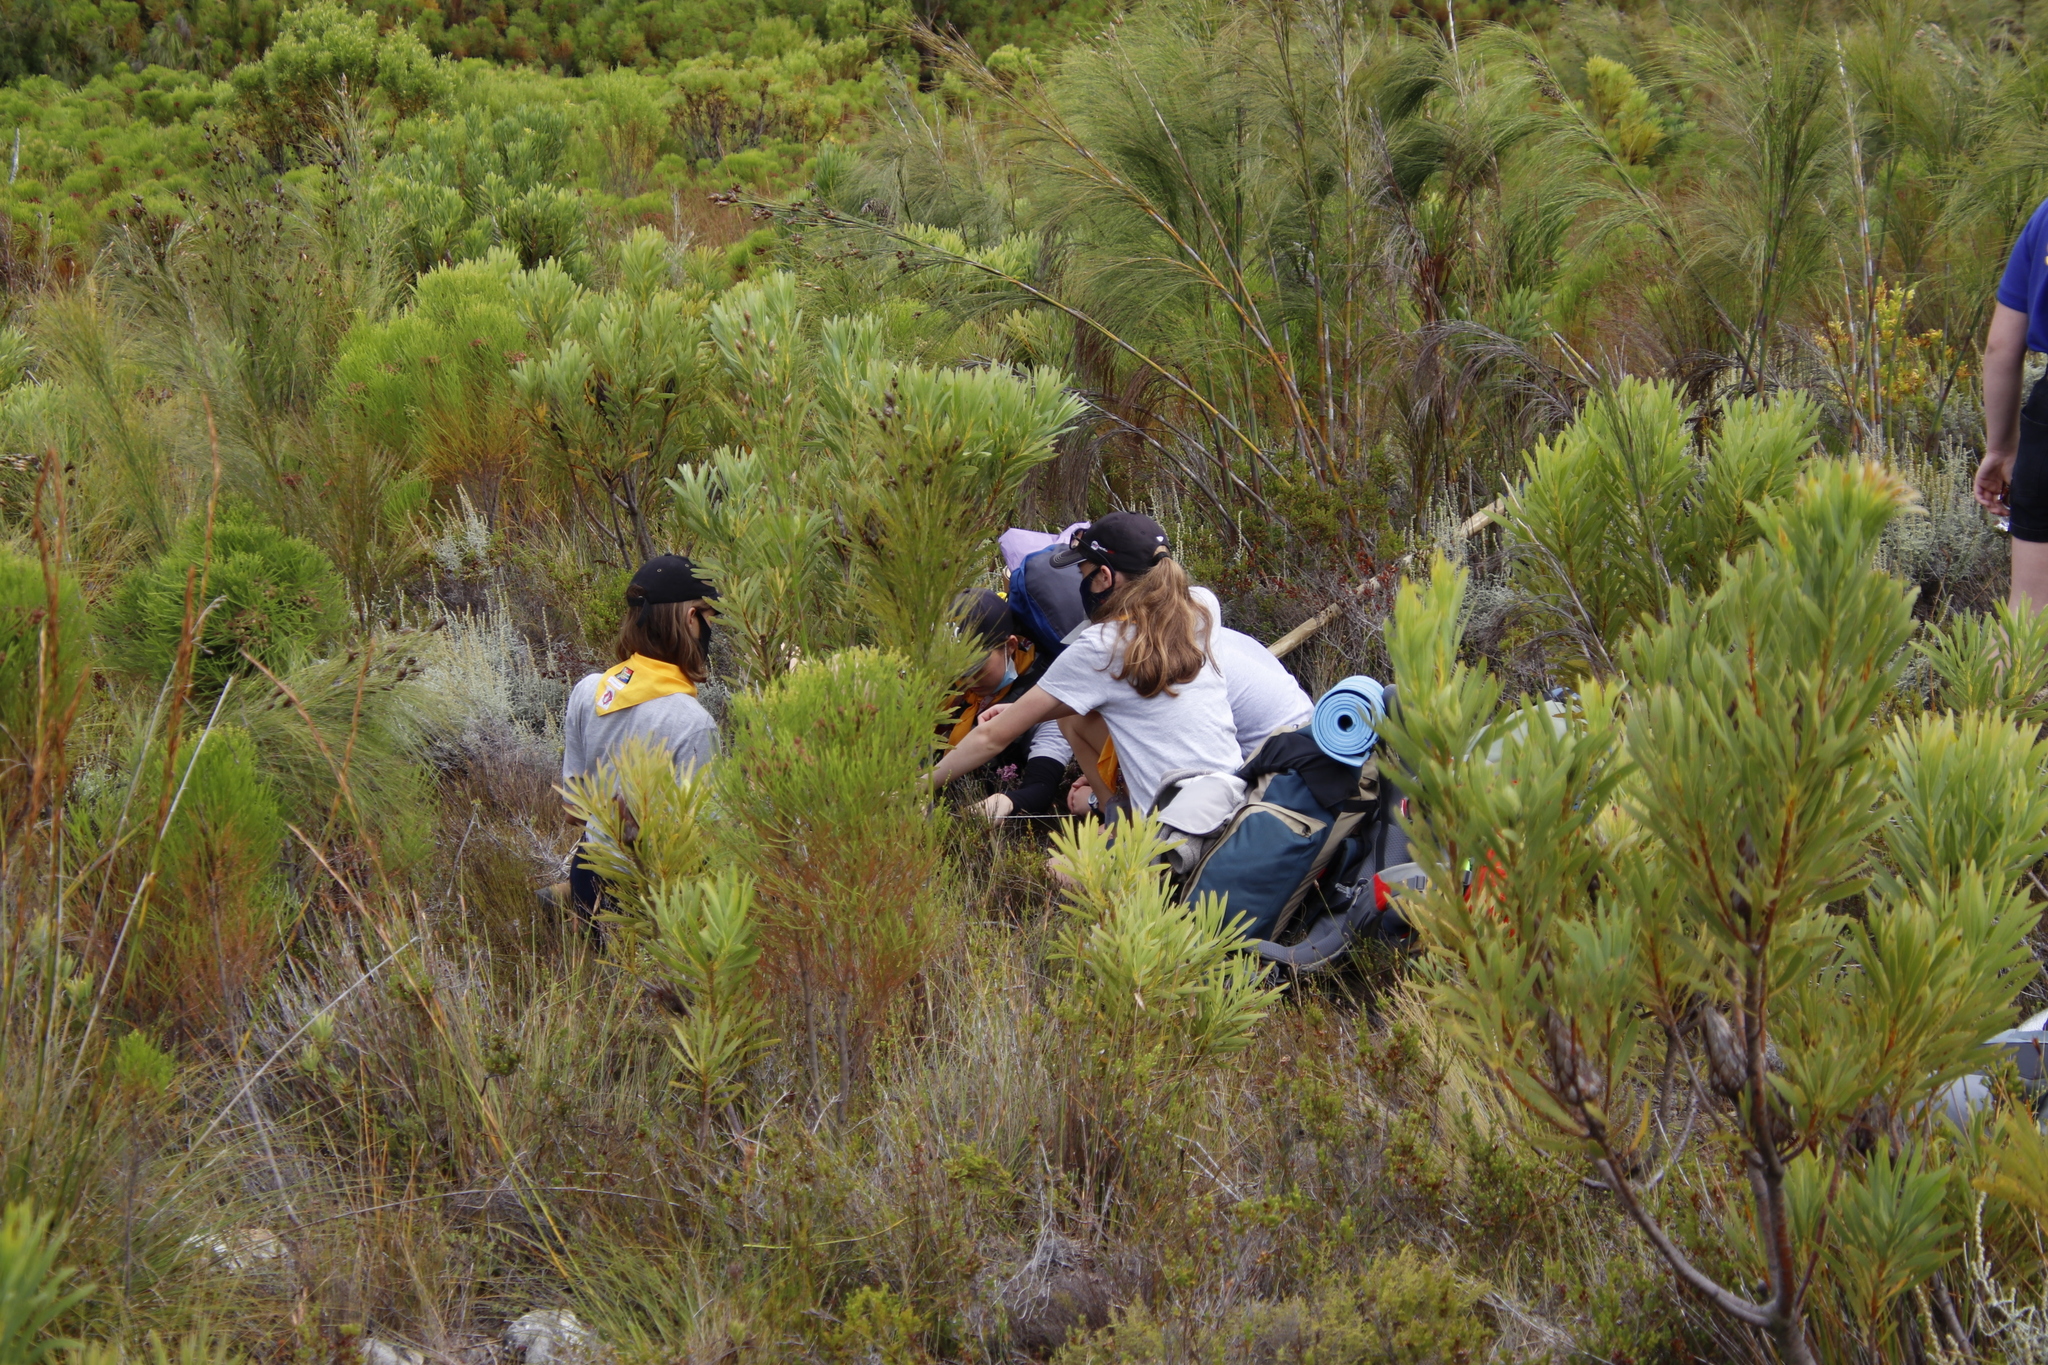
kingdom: Plantae
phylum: Tracheophyta
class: Magnoliopsida
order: Proteales
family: Proteaceae
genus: Protea
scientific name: Protea repens
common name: Sugarbush
